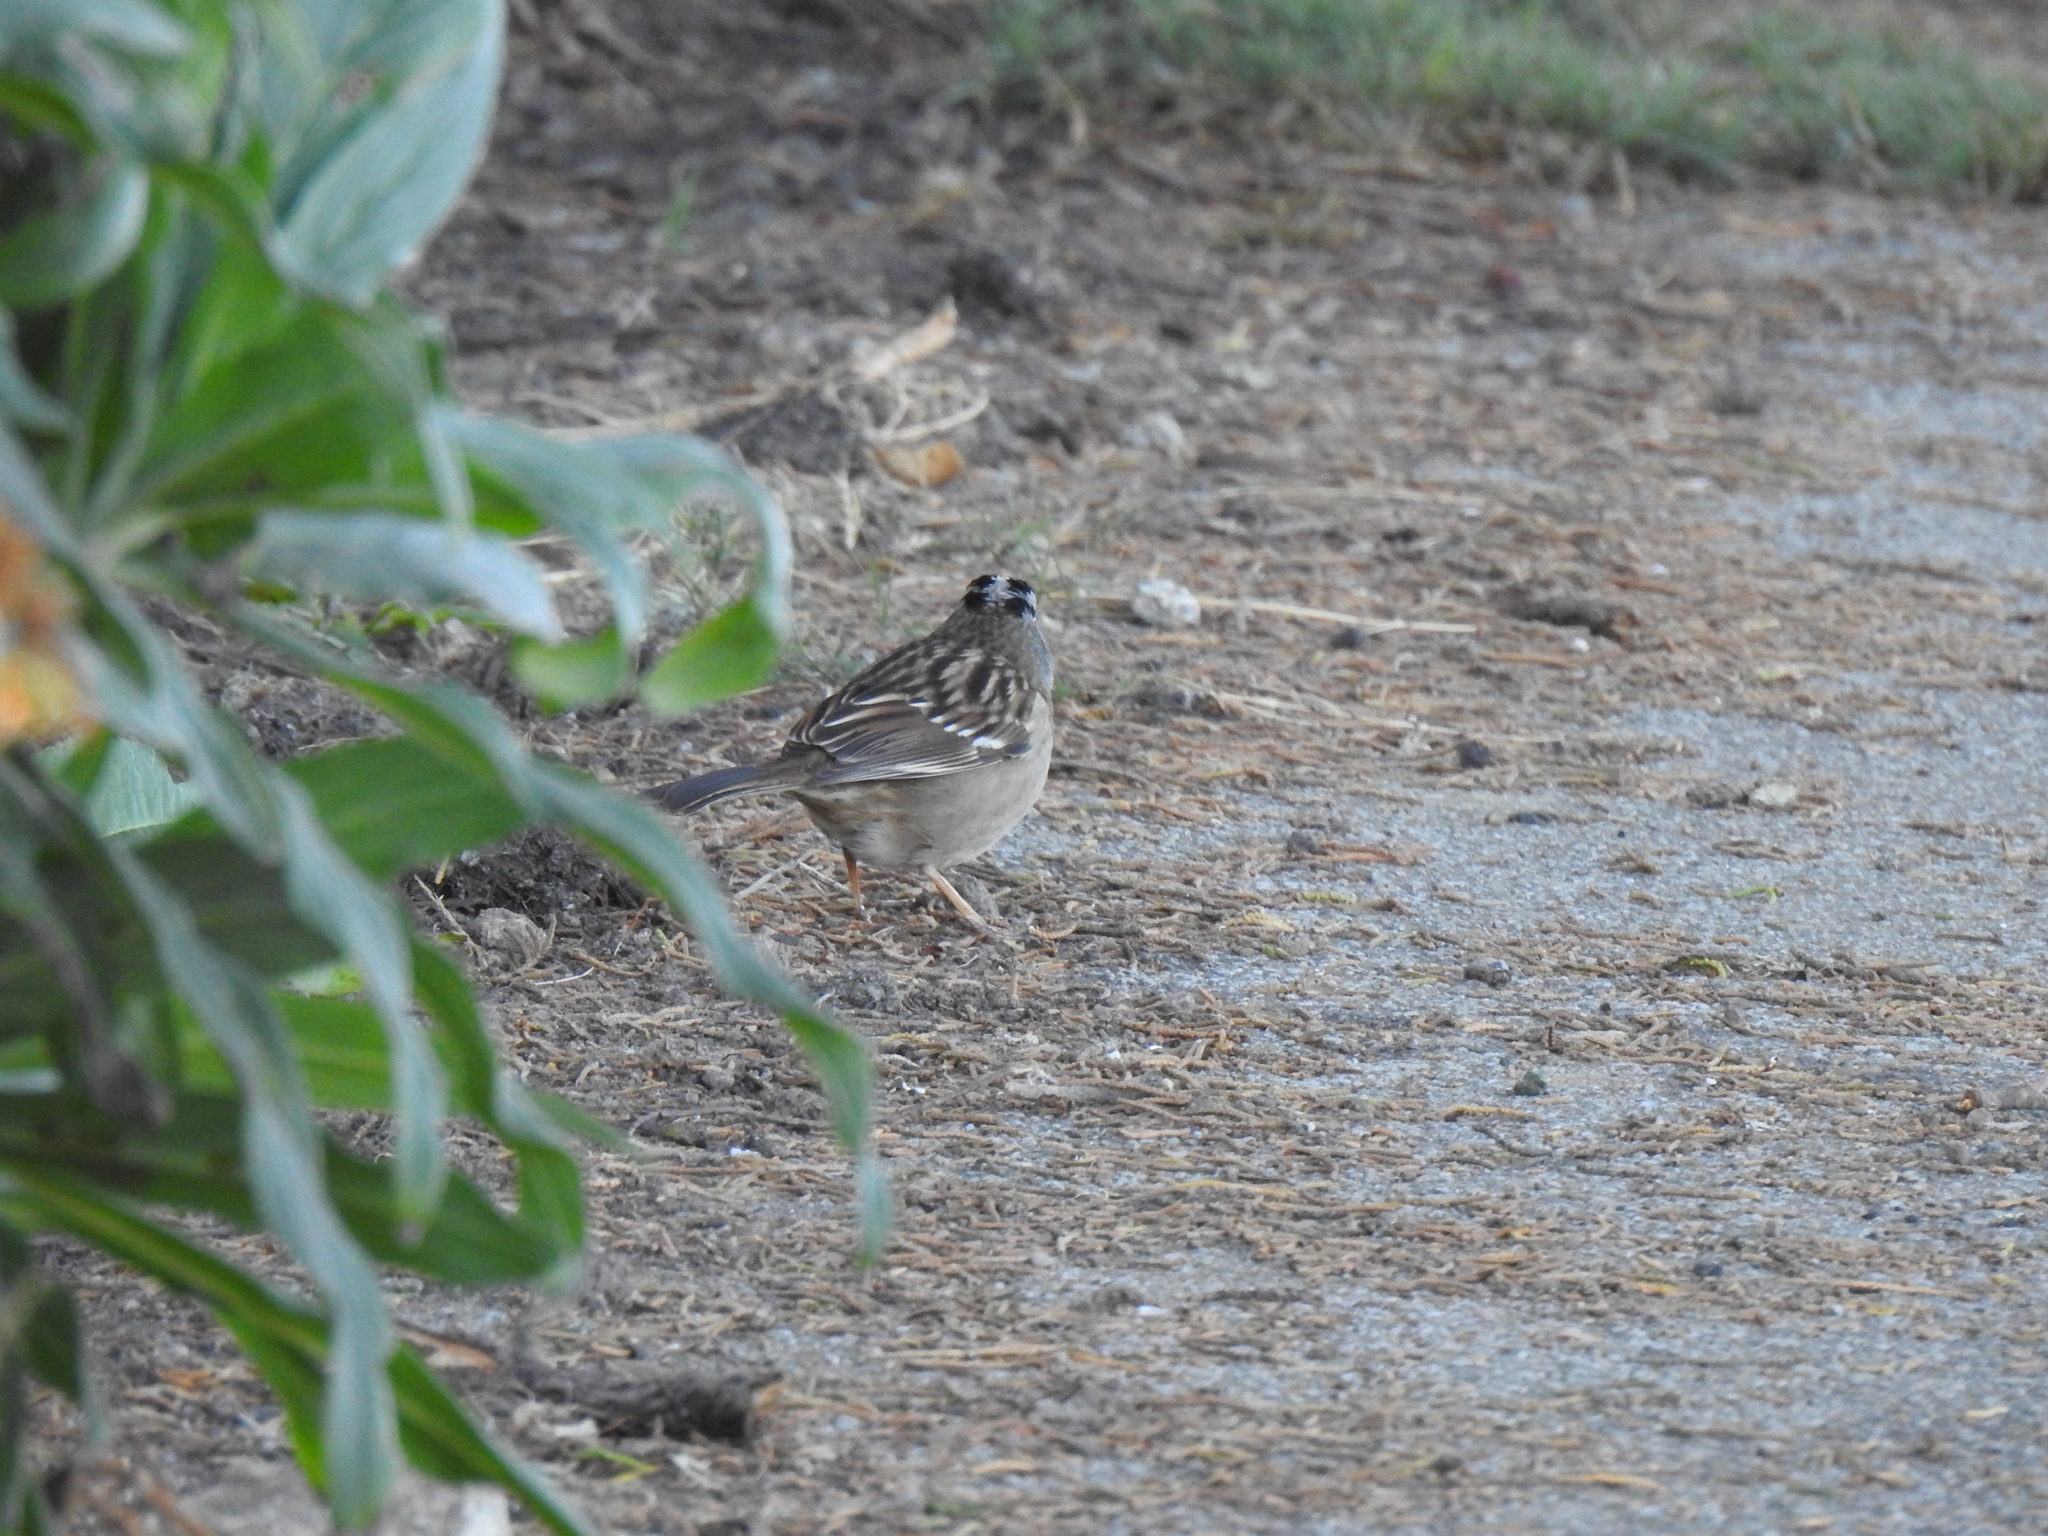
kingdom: Animalia
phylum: Chordata
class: Aves
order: Passeriformes
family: Passerellidae
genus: Zonotrichia
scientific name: Zonotrichia leucophrys
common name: White-crowned sparrow
